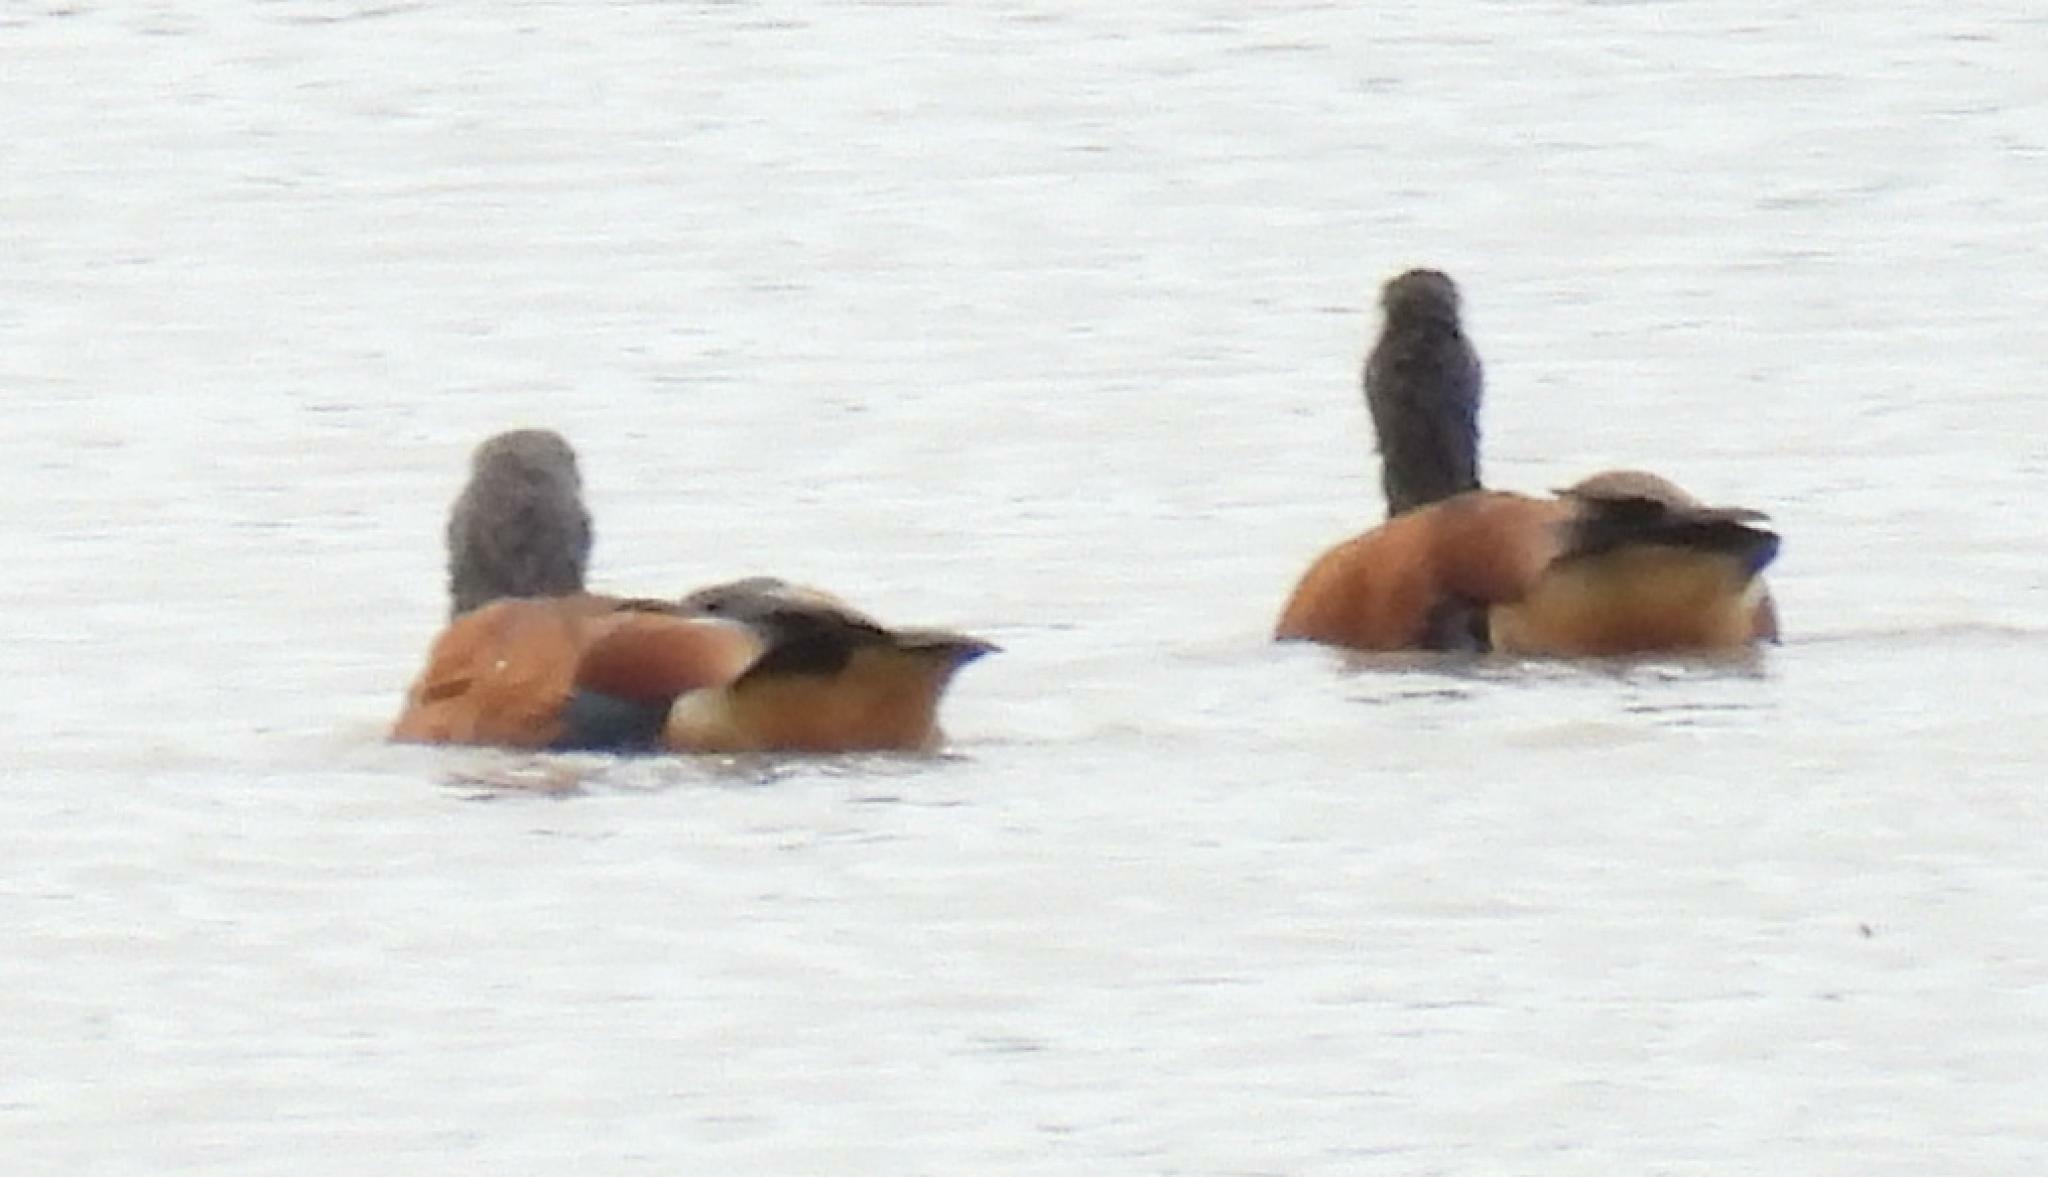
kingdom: Animalia
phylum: Chordata
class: Aves
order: Anseriformes
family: Anatidae
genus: Tadorna
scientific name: Tadorna cana
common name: South african shelduck
